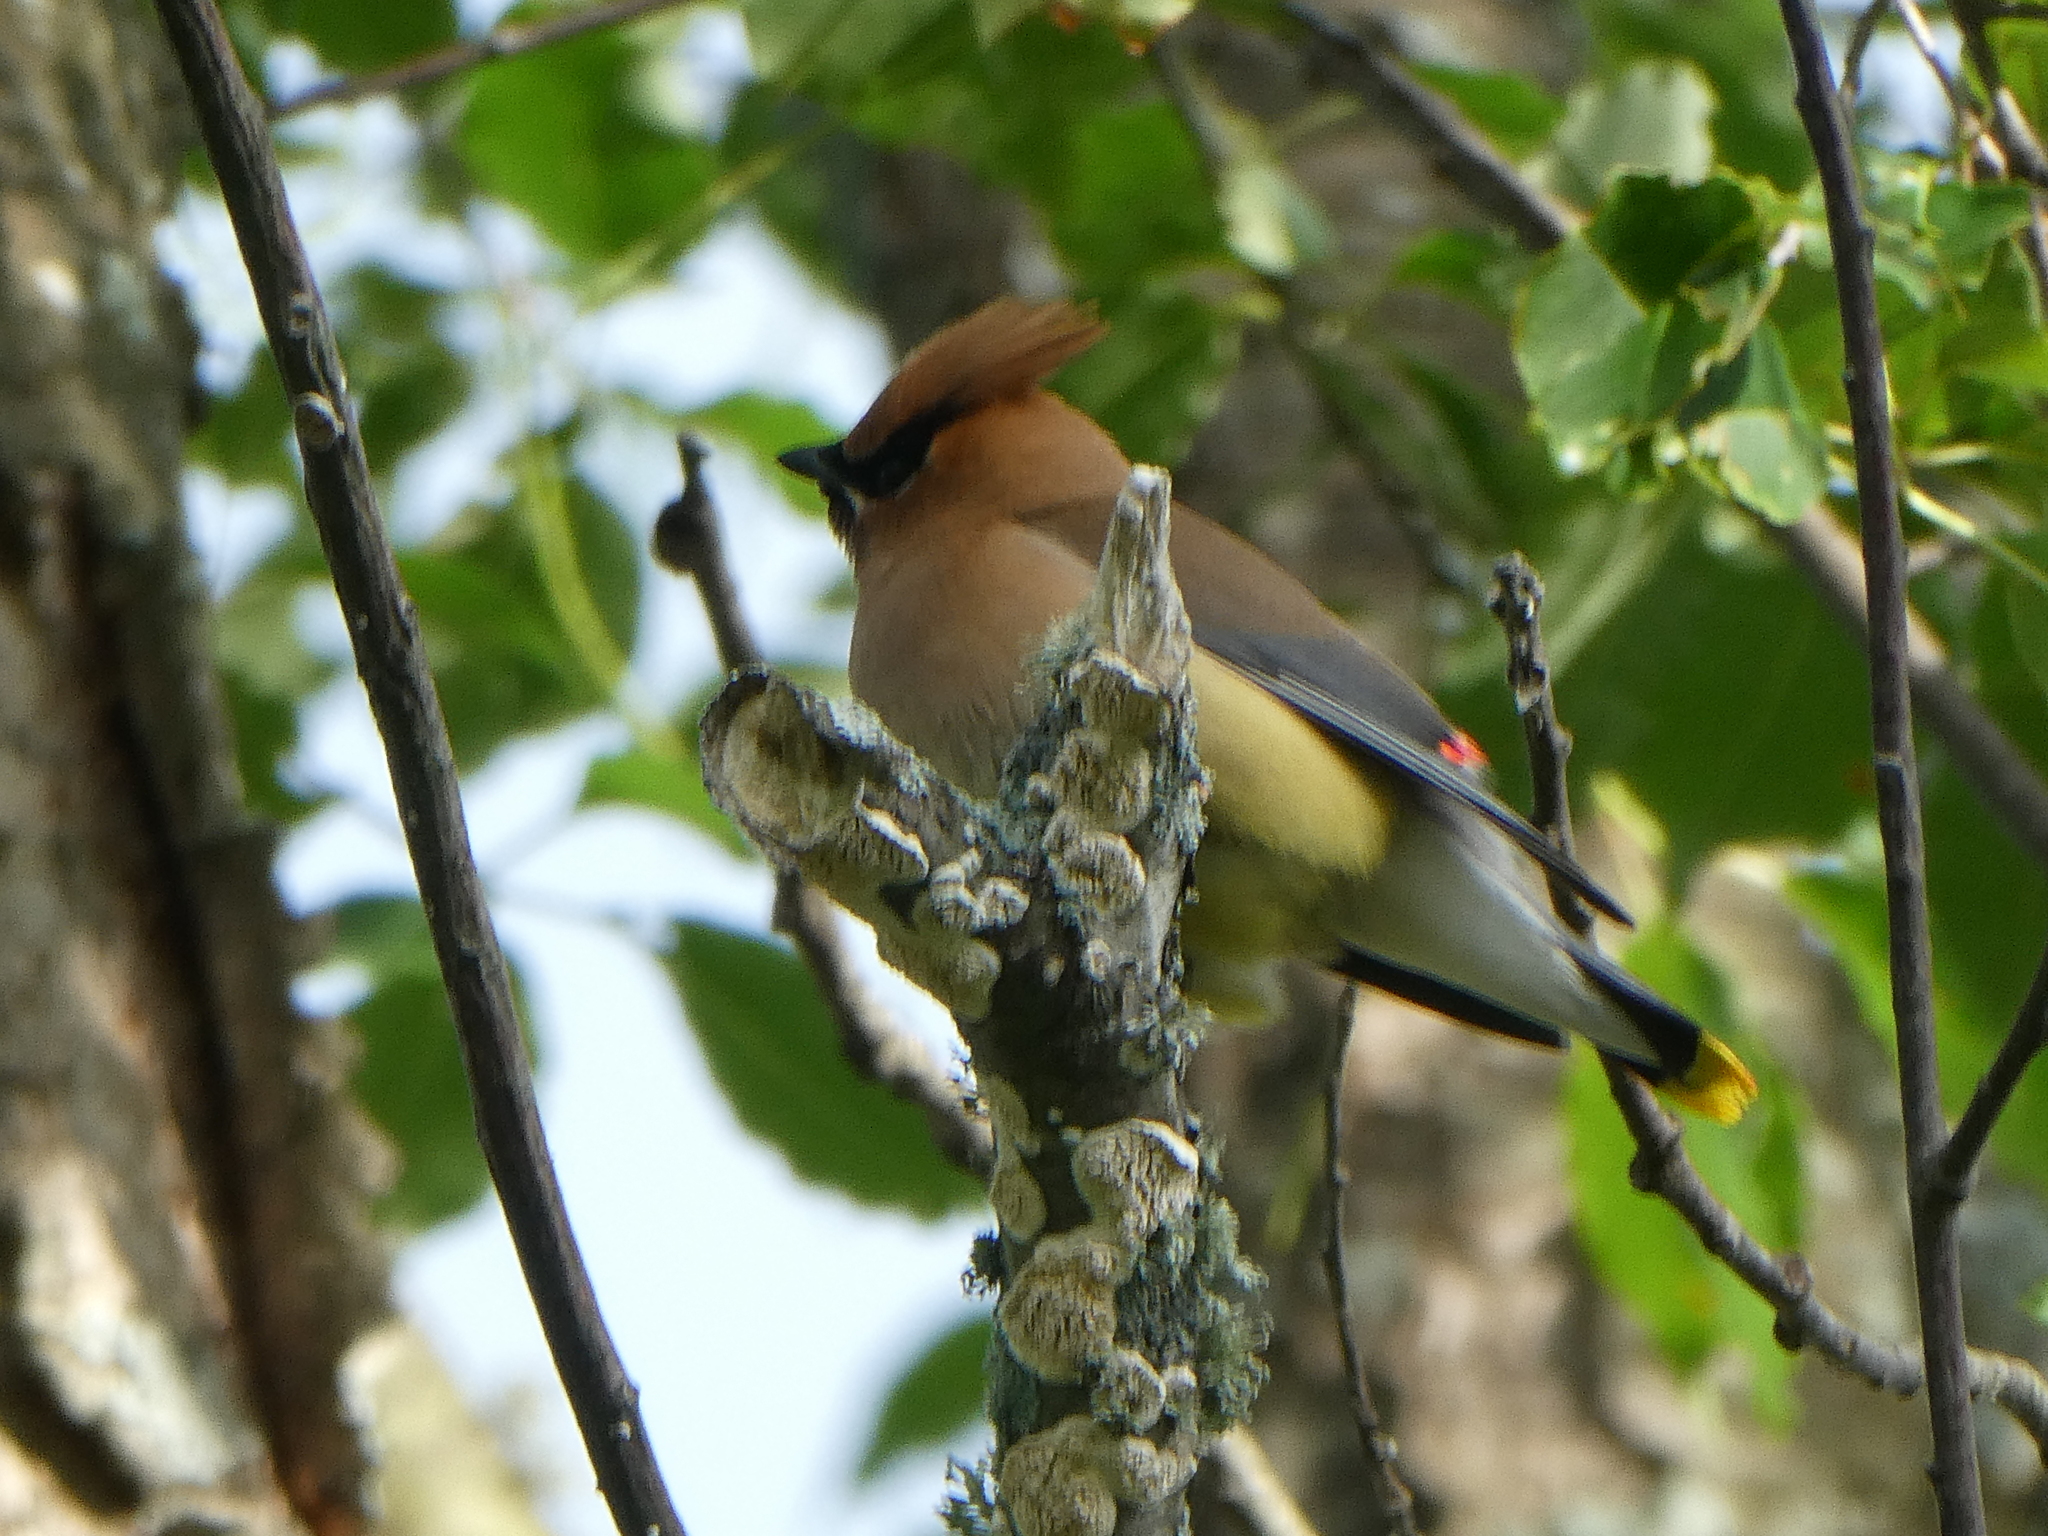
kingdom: Animalia
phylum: Chordata
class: Aves
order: Passeriformes
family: Bombycillidae
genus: Bombycilla
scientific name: Bombycilla cedrorum
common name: Cedar waxwing
